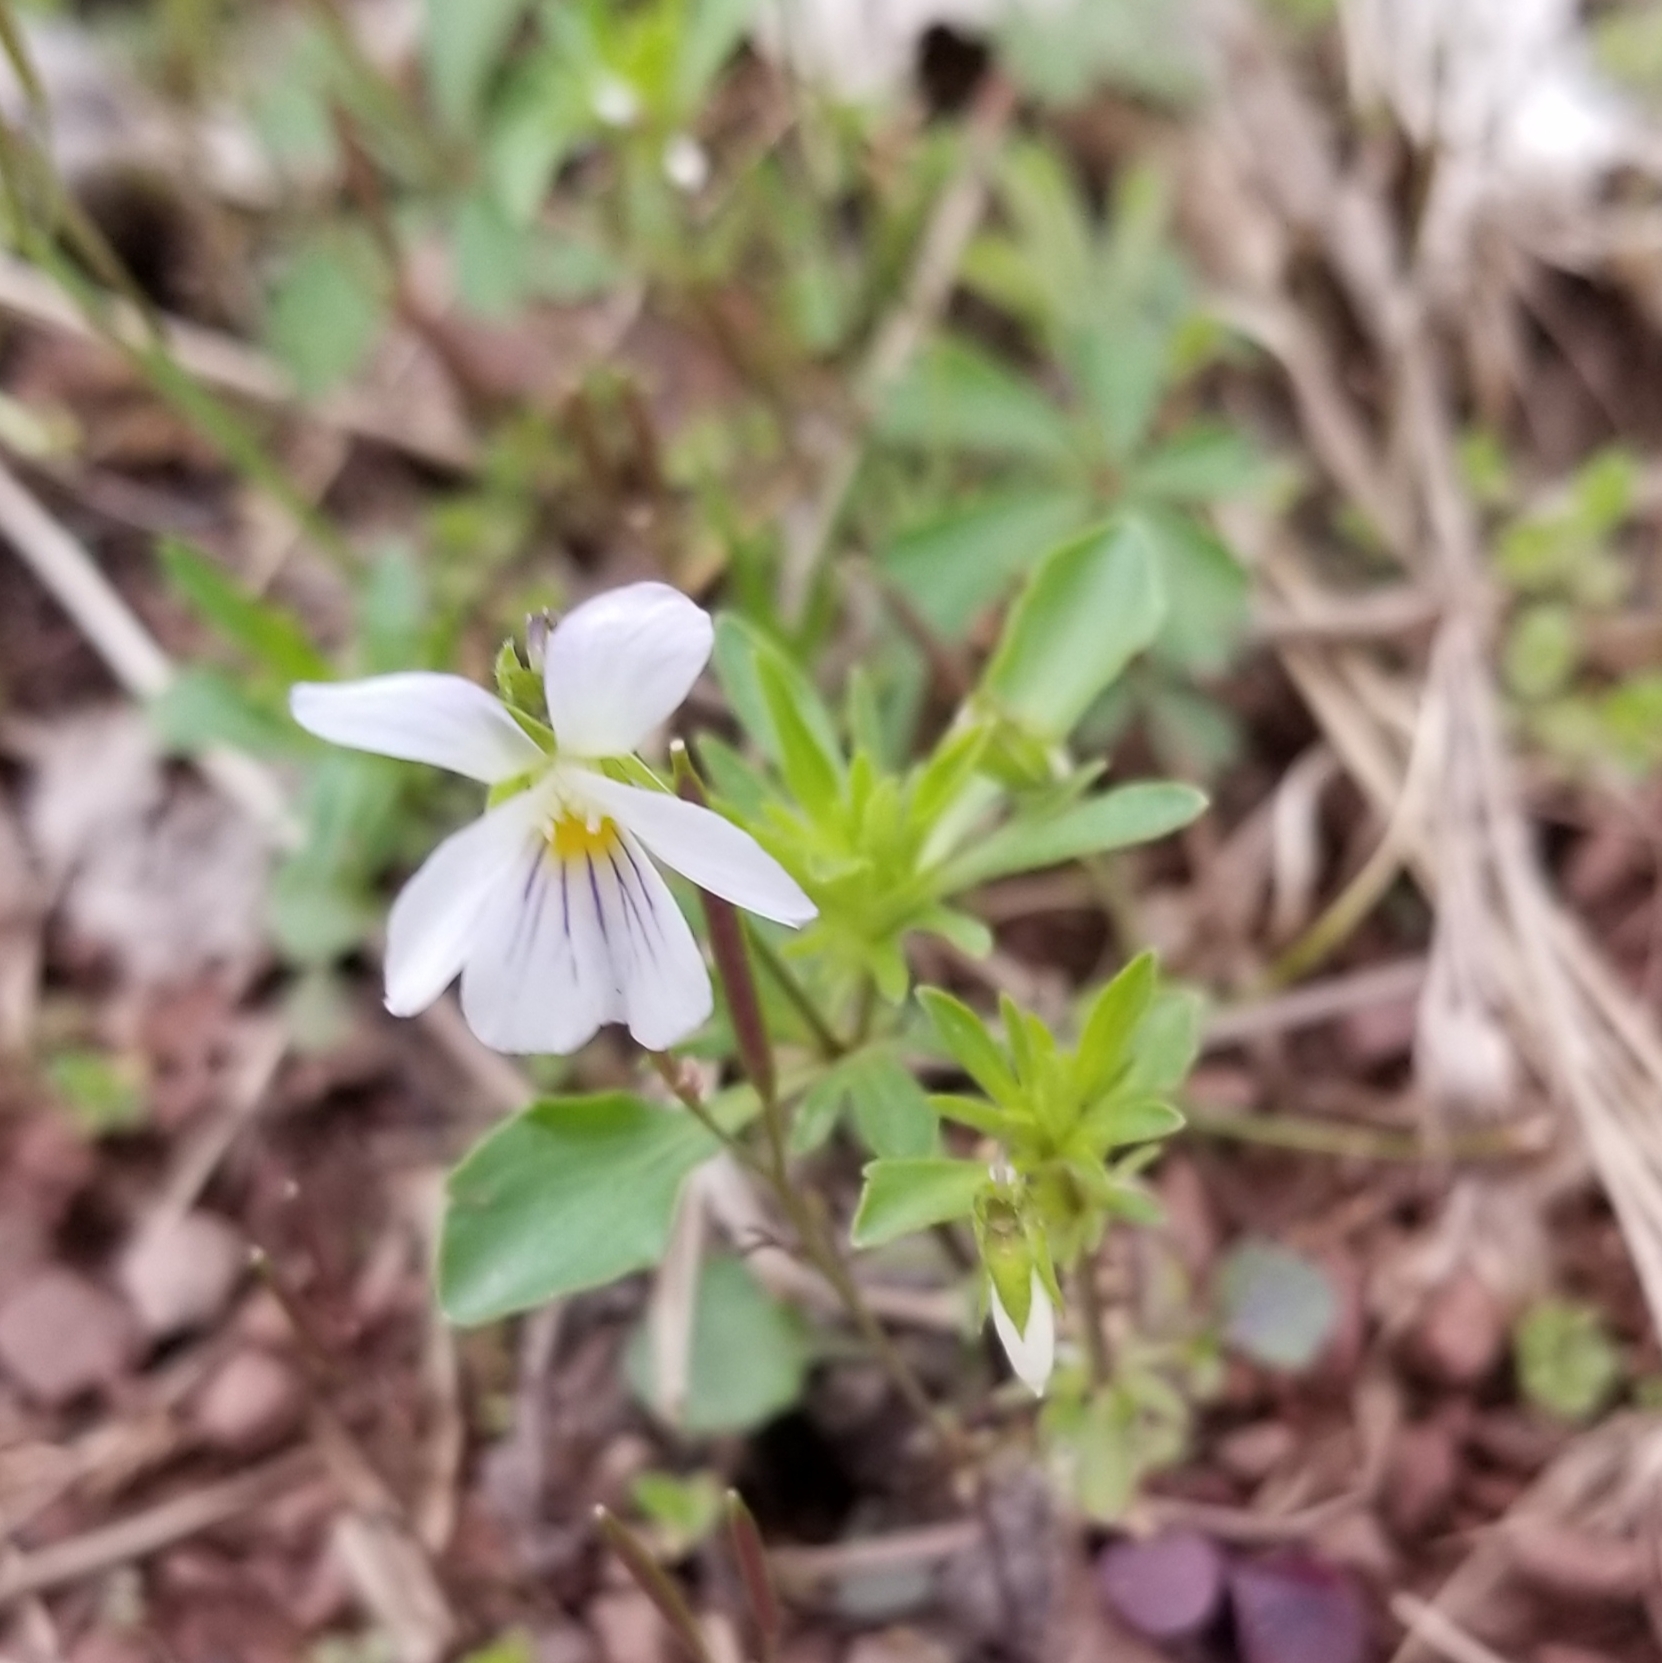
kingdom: Plantae
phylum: Tracheophyta
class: Magnoliopsida
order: Malpighiales
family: Violaceae
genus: Viola
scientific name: Viola rafinesquei
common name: American field pansy
